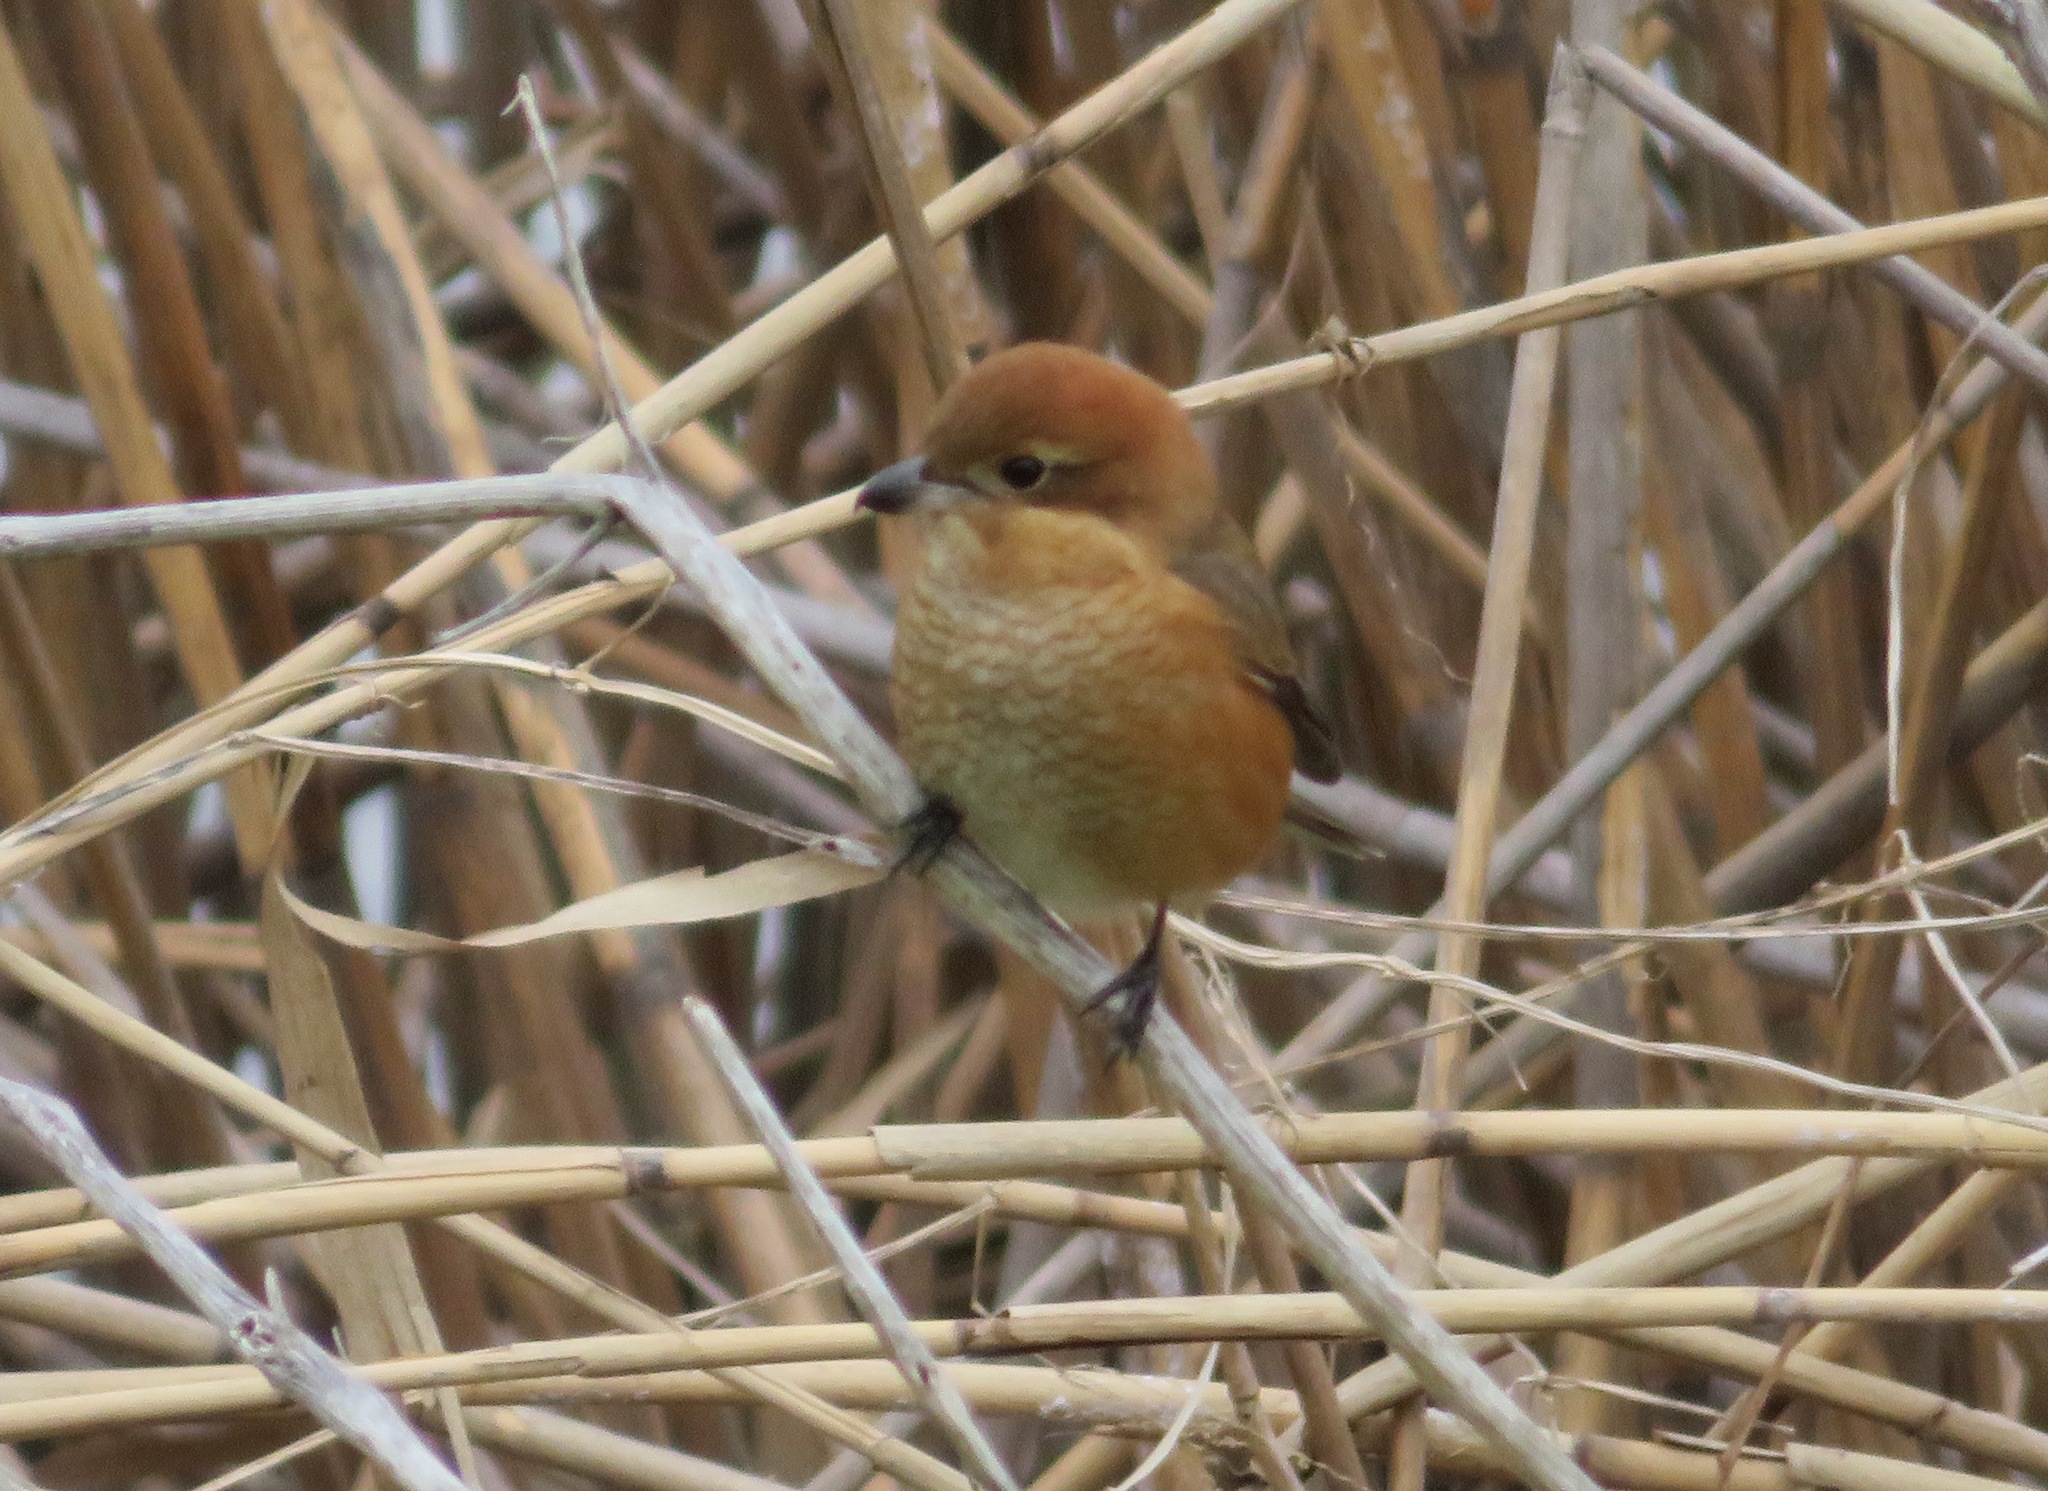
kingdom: Animalia
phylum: Chordata
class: Aves
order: Passeriformes
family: Laniidae
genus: Lanius
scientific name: Lanius bucephalus
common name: Bull-headed shrike
